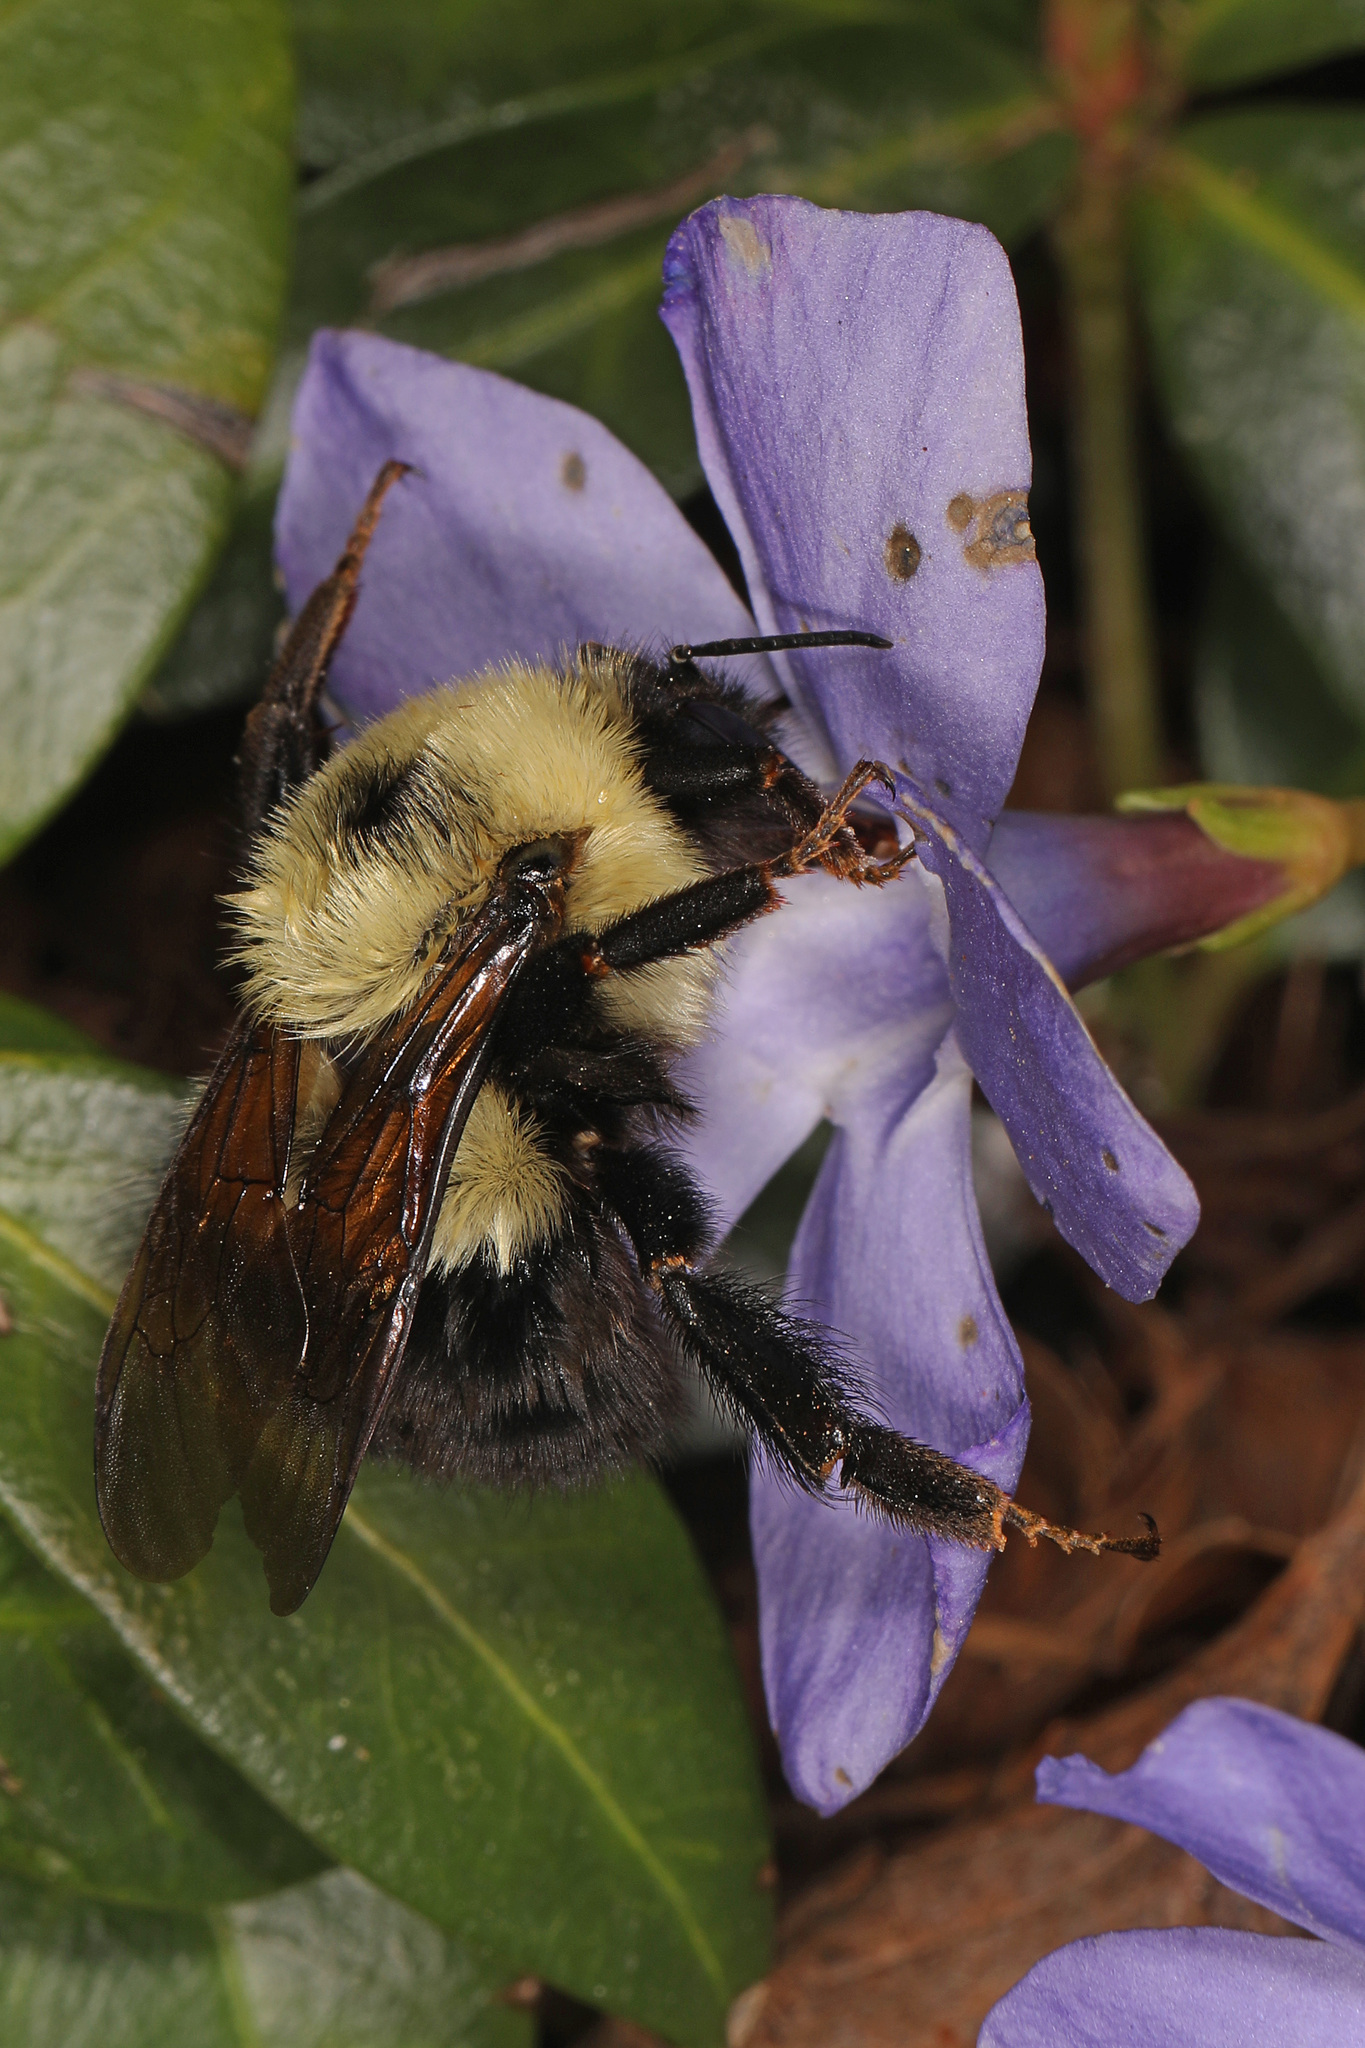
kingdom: Animalia
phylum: Arthropoda
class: Insecta
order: Hymenoptera
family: Apidae
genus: Bombus
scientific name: Bombus bimaculatus
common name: Two-spotted bumble bee
